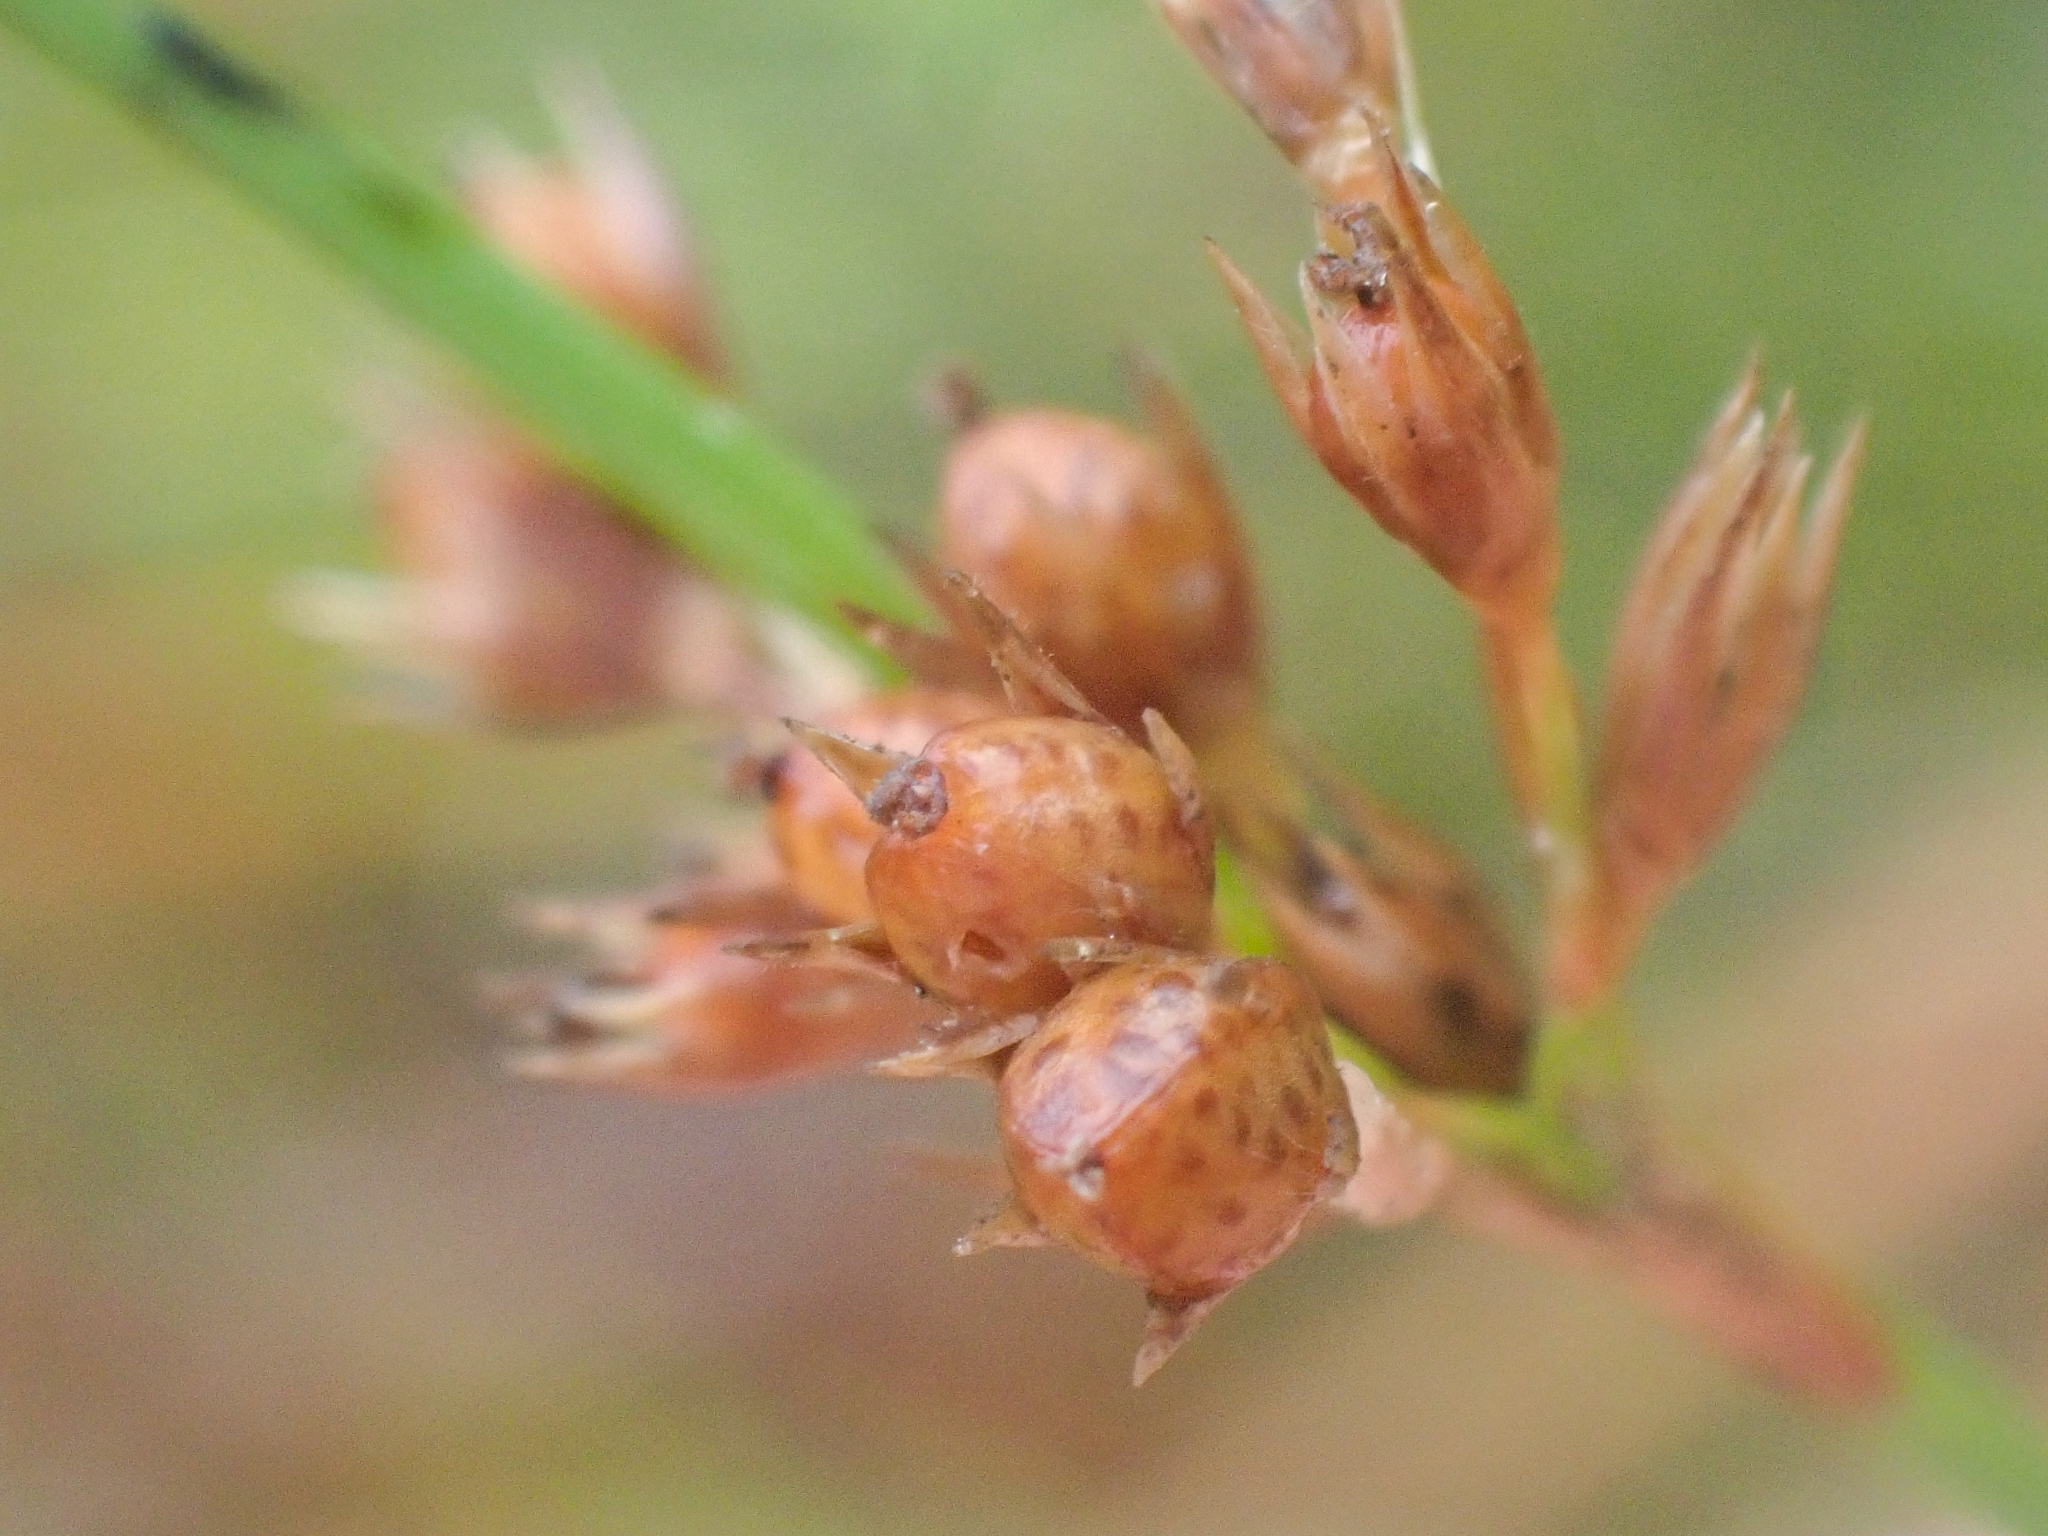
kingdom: Plantae
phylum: Tracheophyta
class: Liliopsida
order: Poales
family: Juncaceae
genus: Juncus
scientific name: Juncus filiformis
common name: Thread rush
